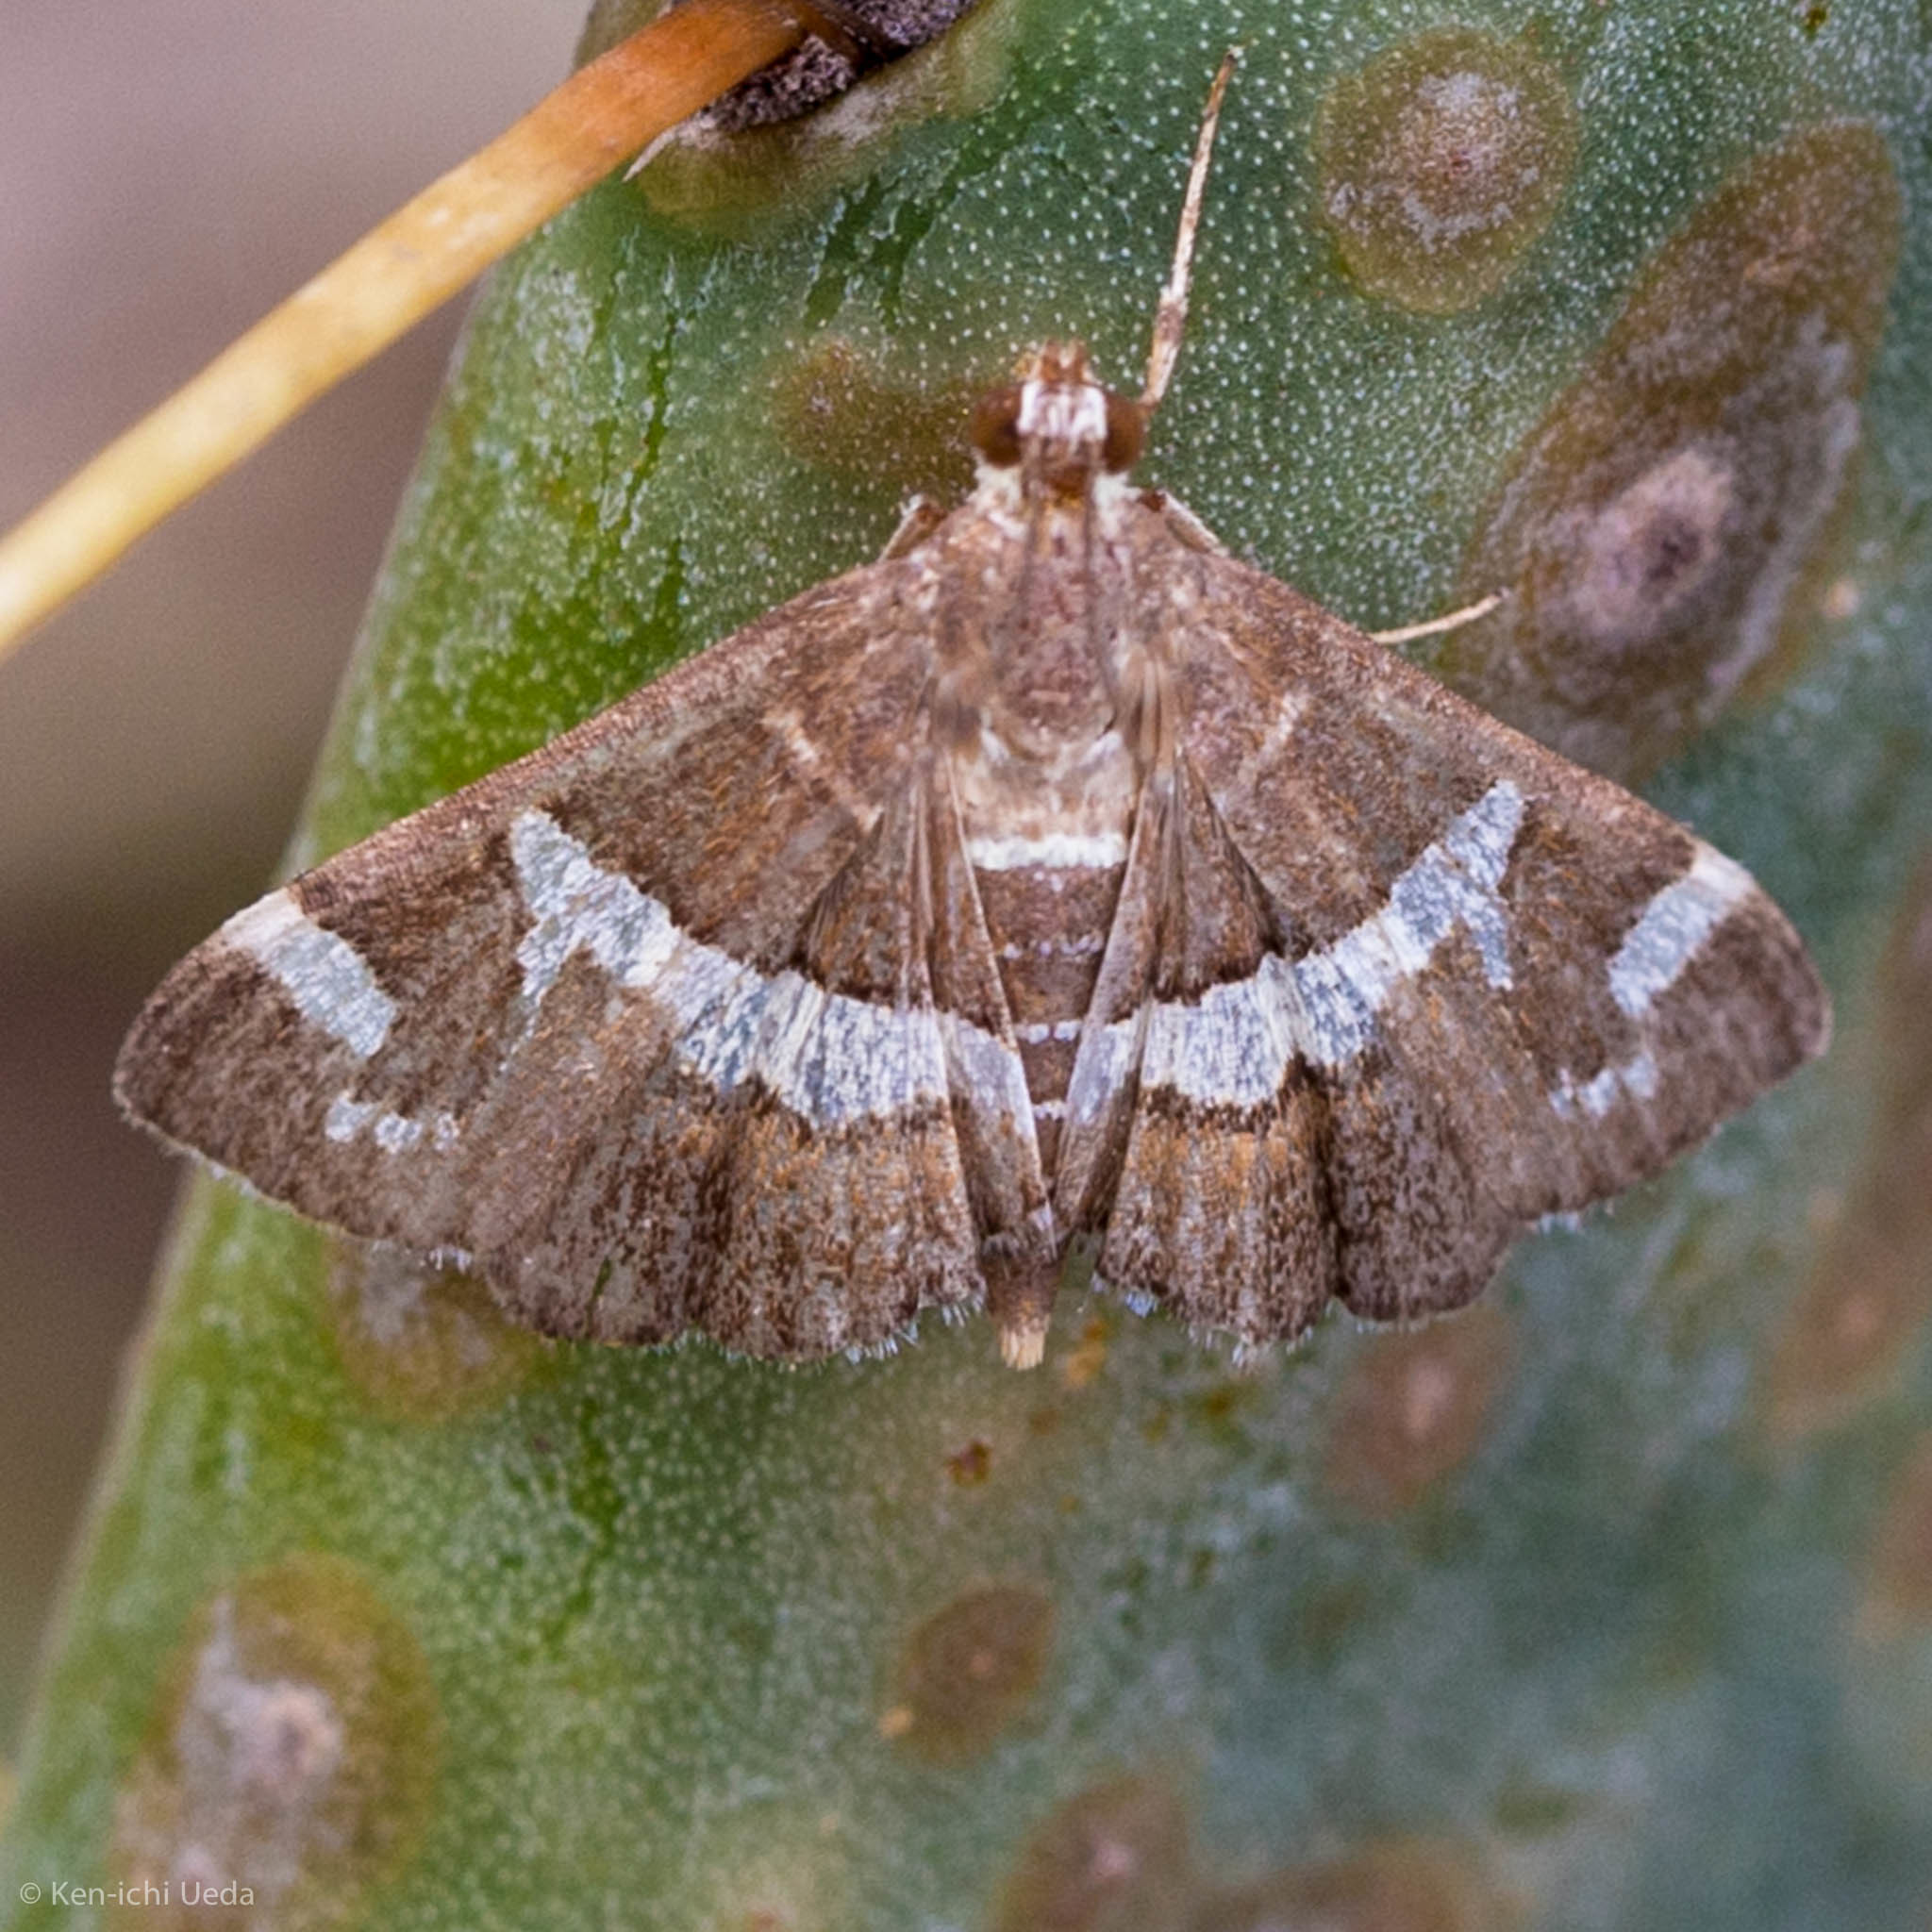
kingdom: Animalia
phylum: Arthropoda
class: Insecta
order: Lepidoptera
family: Crambidae
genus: Spoladea
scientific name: Spoladea recurvalis
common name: Beet webworm moth
